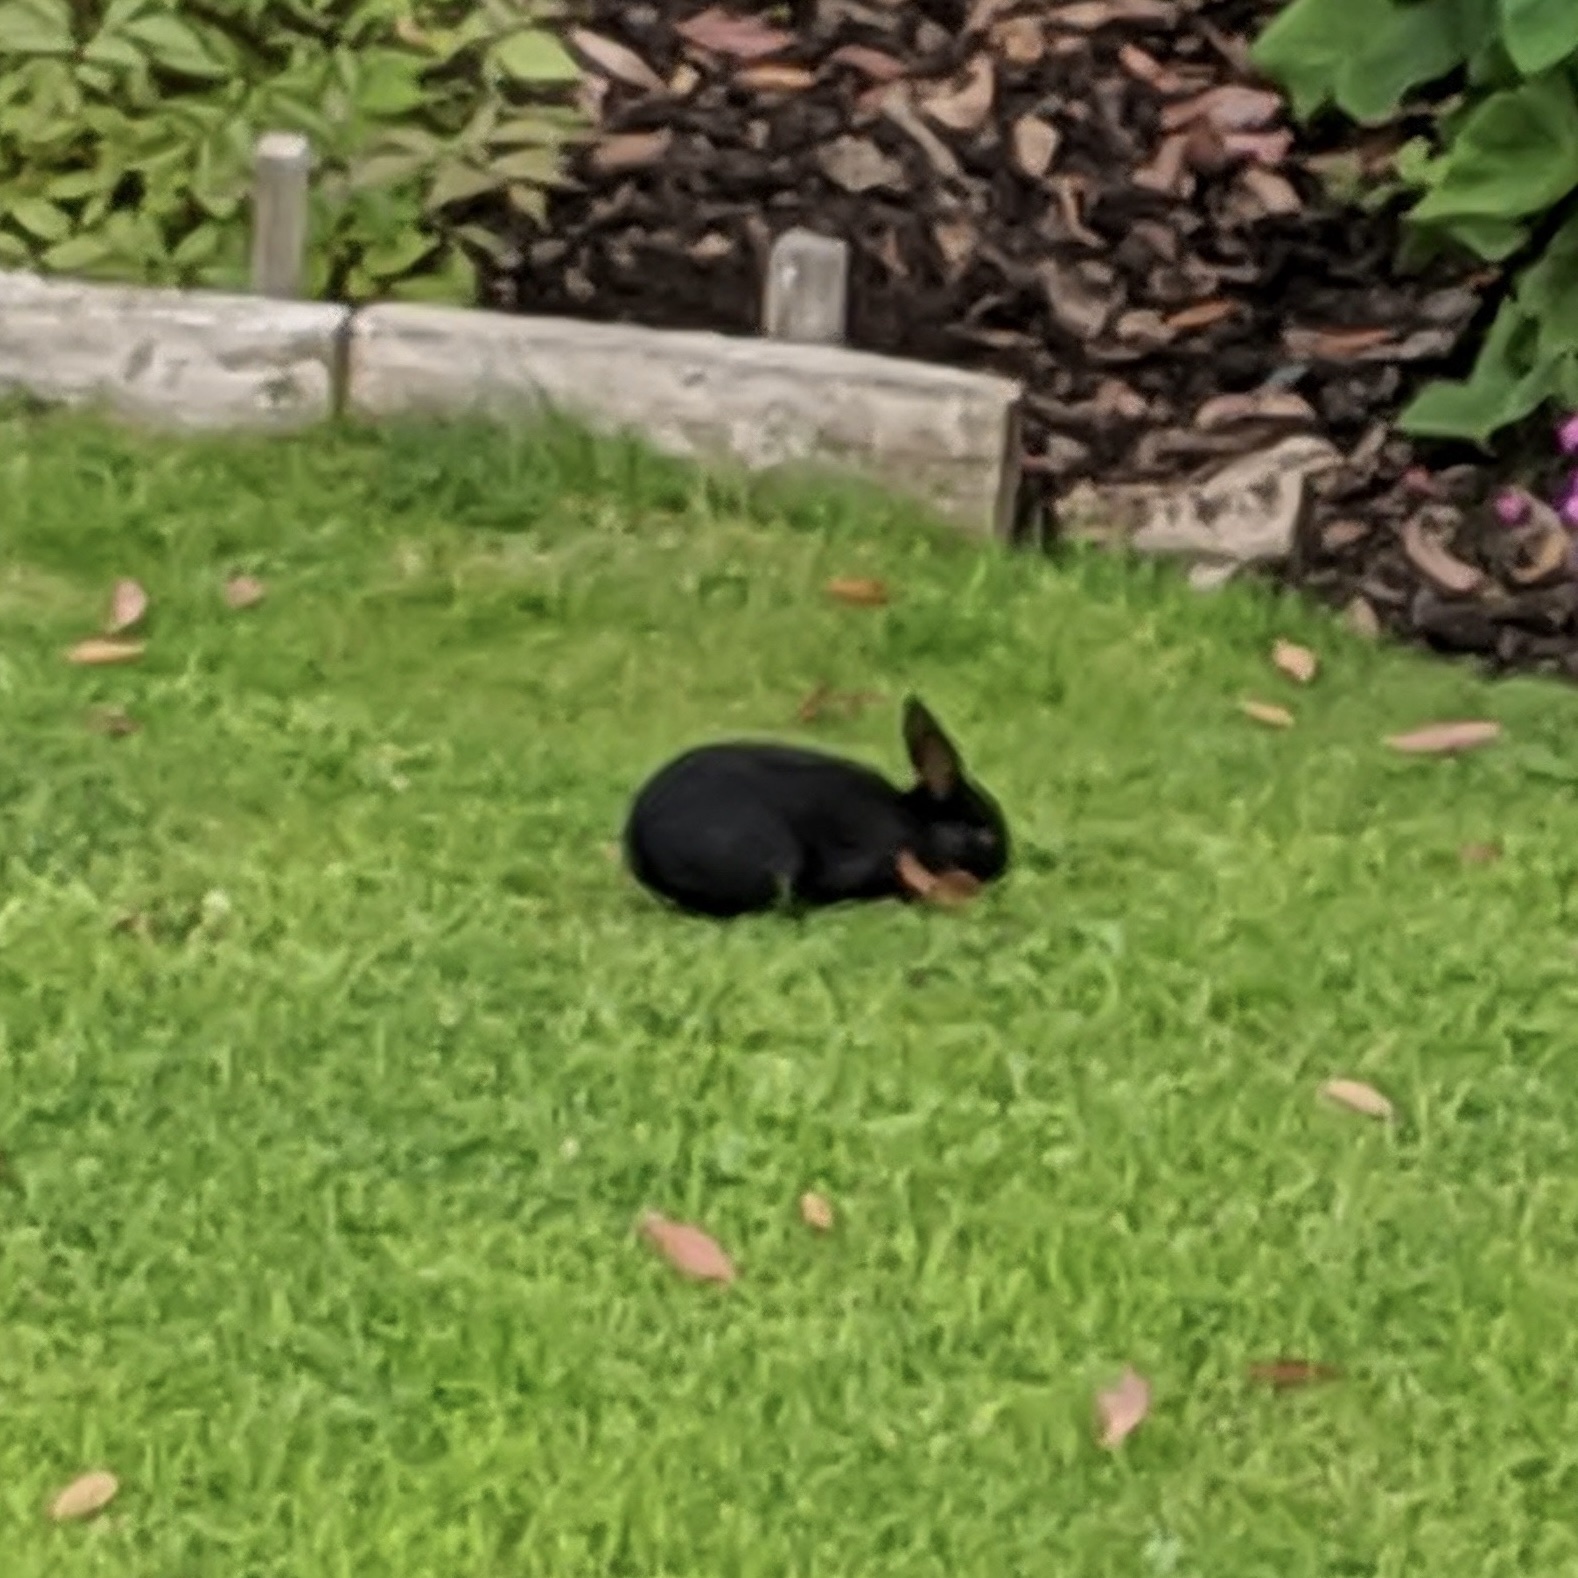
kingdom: Animalia
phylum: Chordata
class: Mammalia
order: Lagomorpha
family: Leporidae
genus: Oryctolagus
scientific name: Oryctolagus cuniculus
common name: European rabbit
